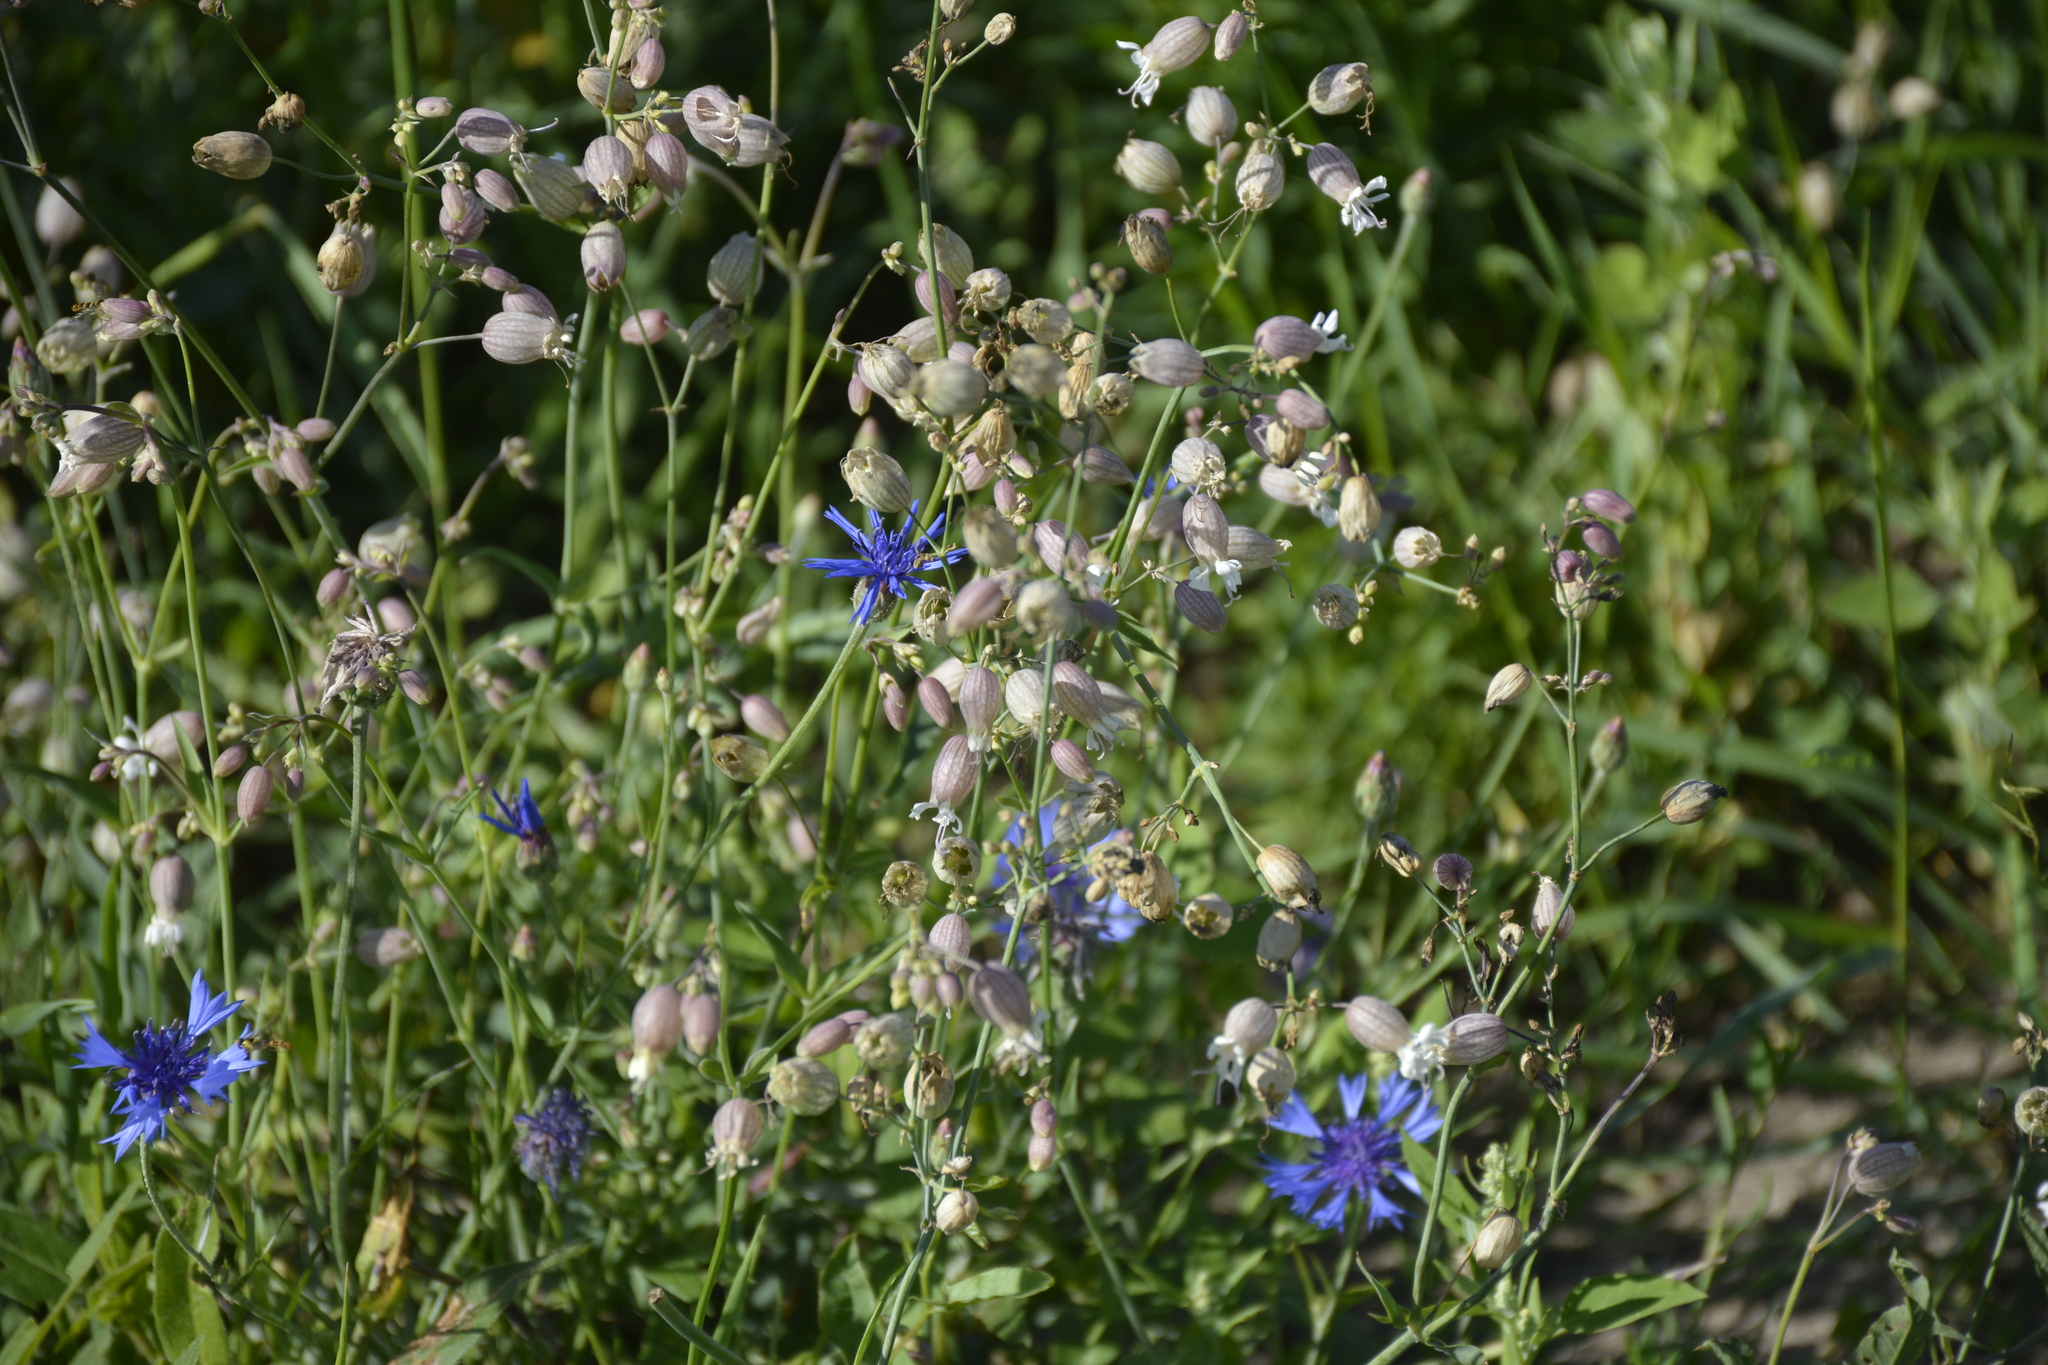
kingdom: Plantae
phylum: Tracheophyta
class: Magnoliopsida
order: Caryophyllales
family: Caryophyllaceae
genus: Silene
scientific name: Silene vulgaris
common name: Bladder campion
